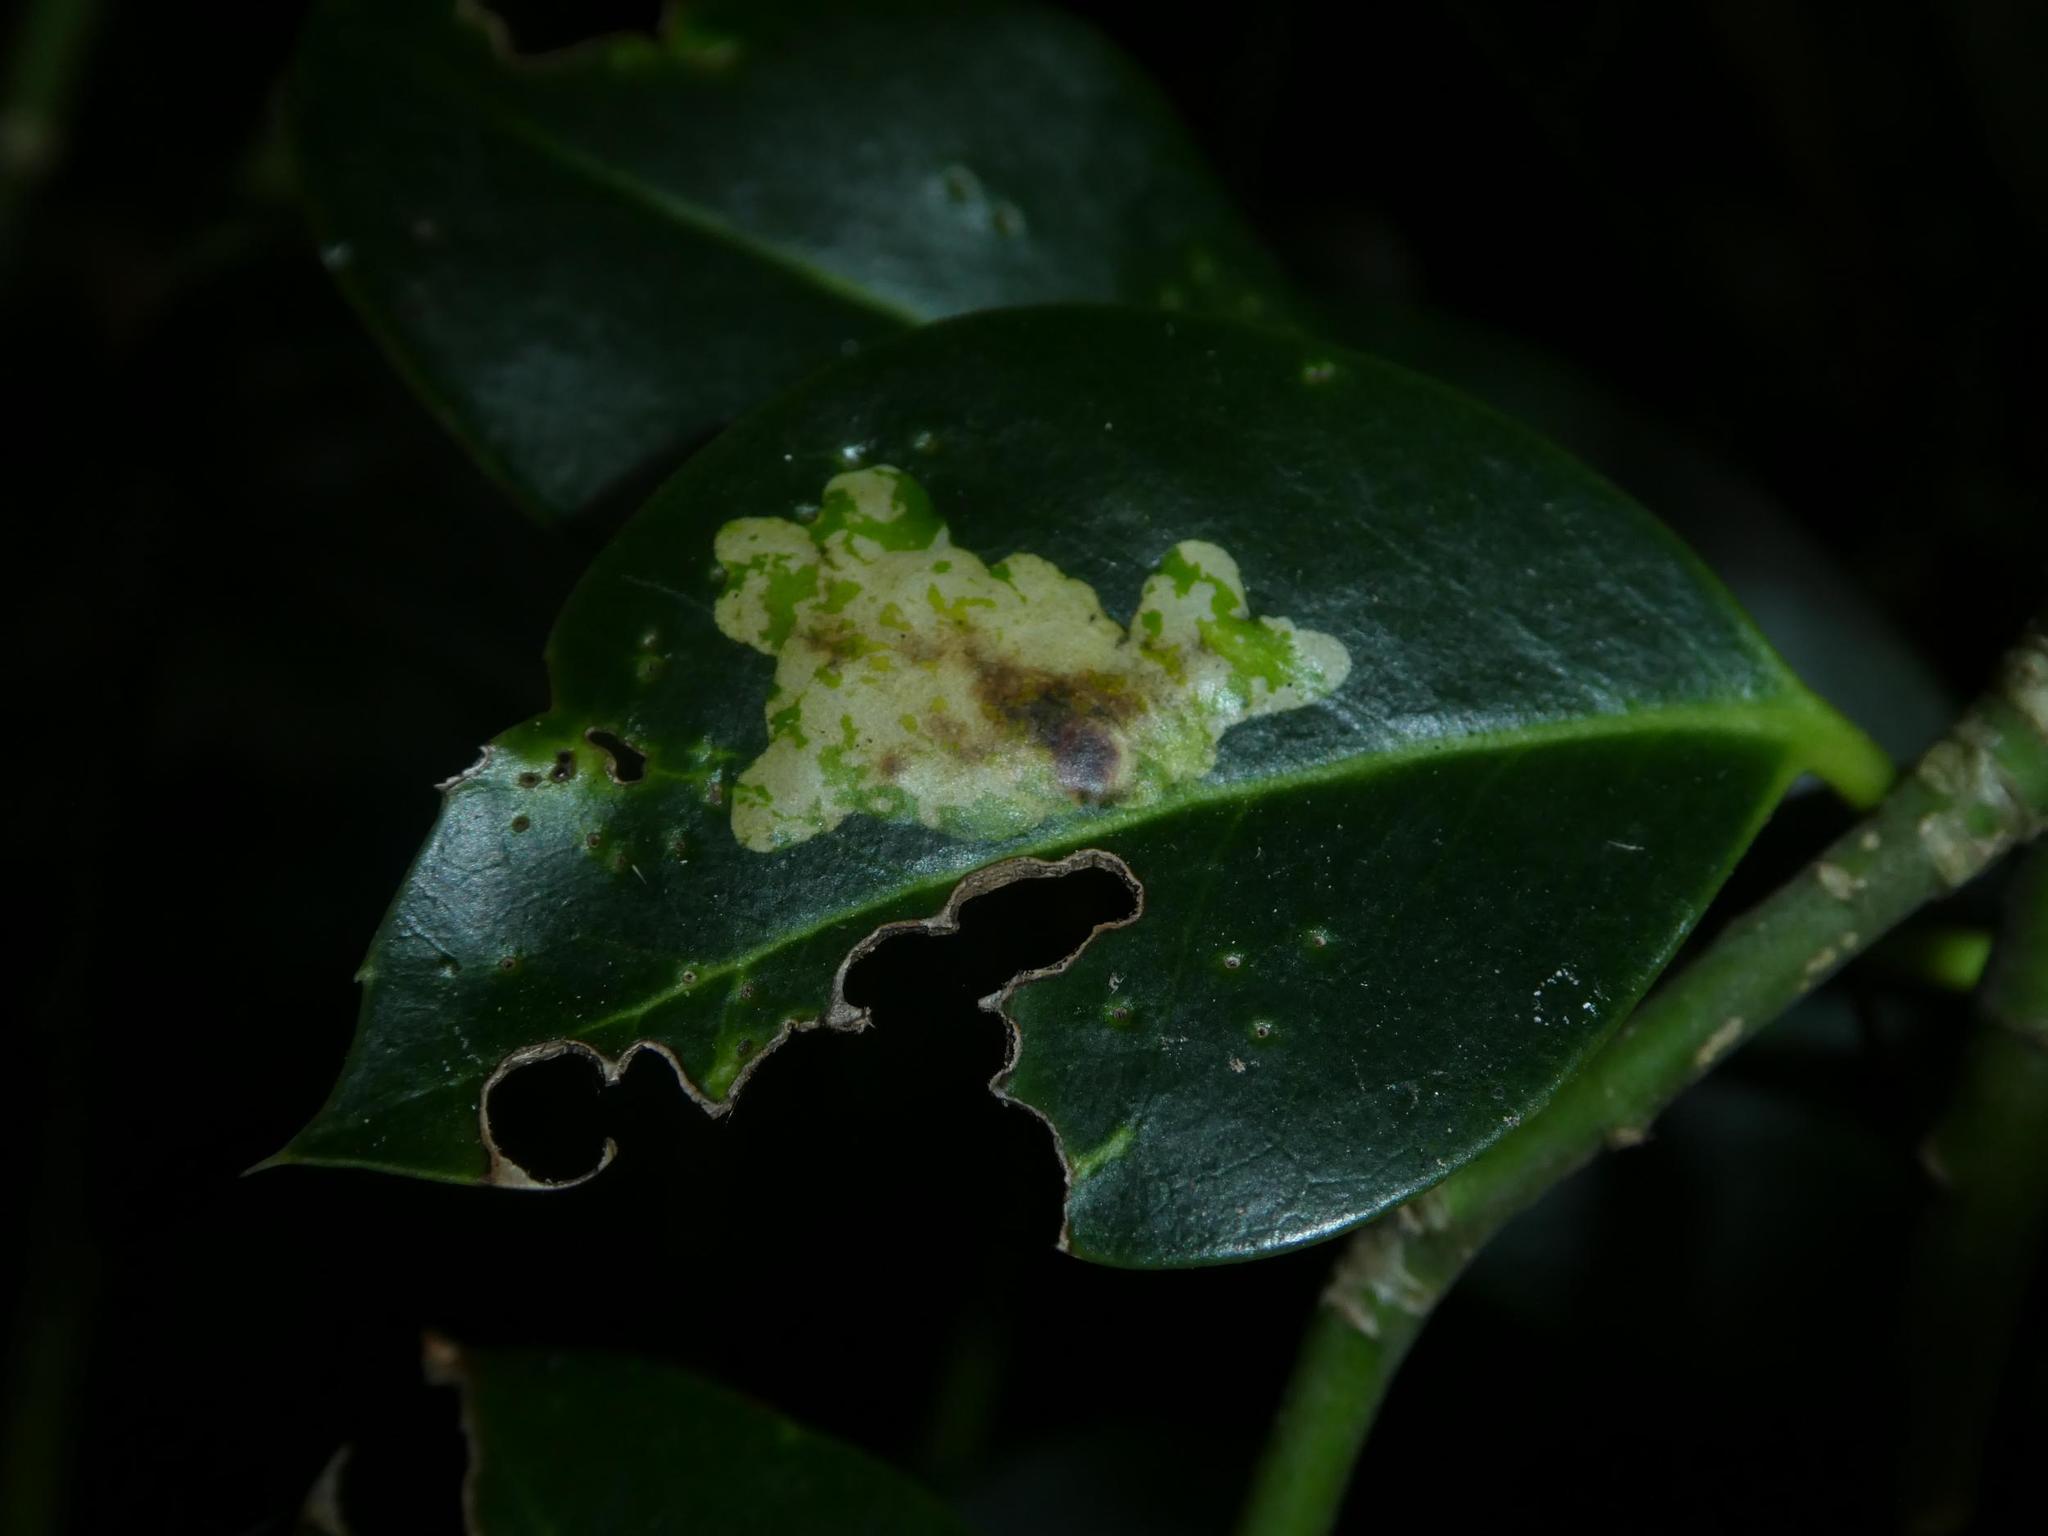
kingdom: Animalia
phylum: Arthropoda
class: Insecta
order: Diptera
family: Agromyzidae
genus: Phytomyza
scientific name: Phytomyza ilicis
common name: Holly leafminer
